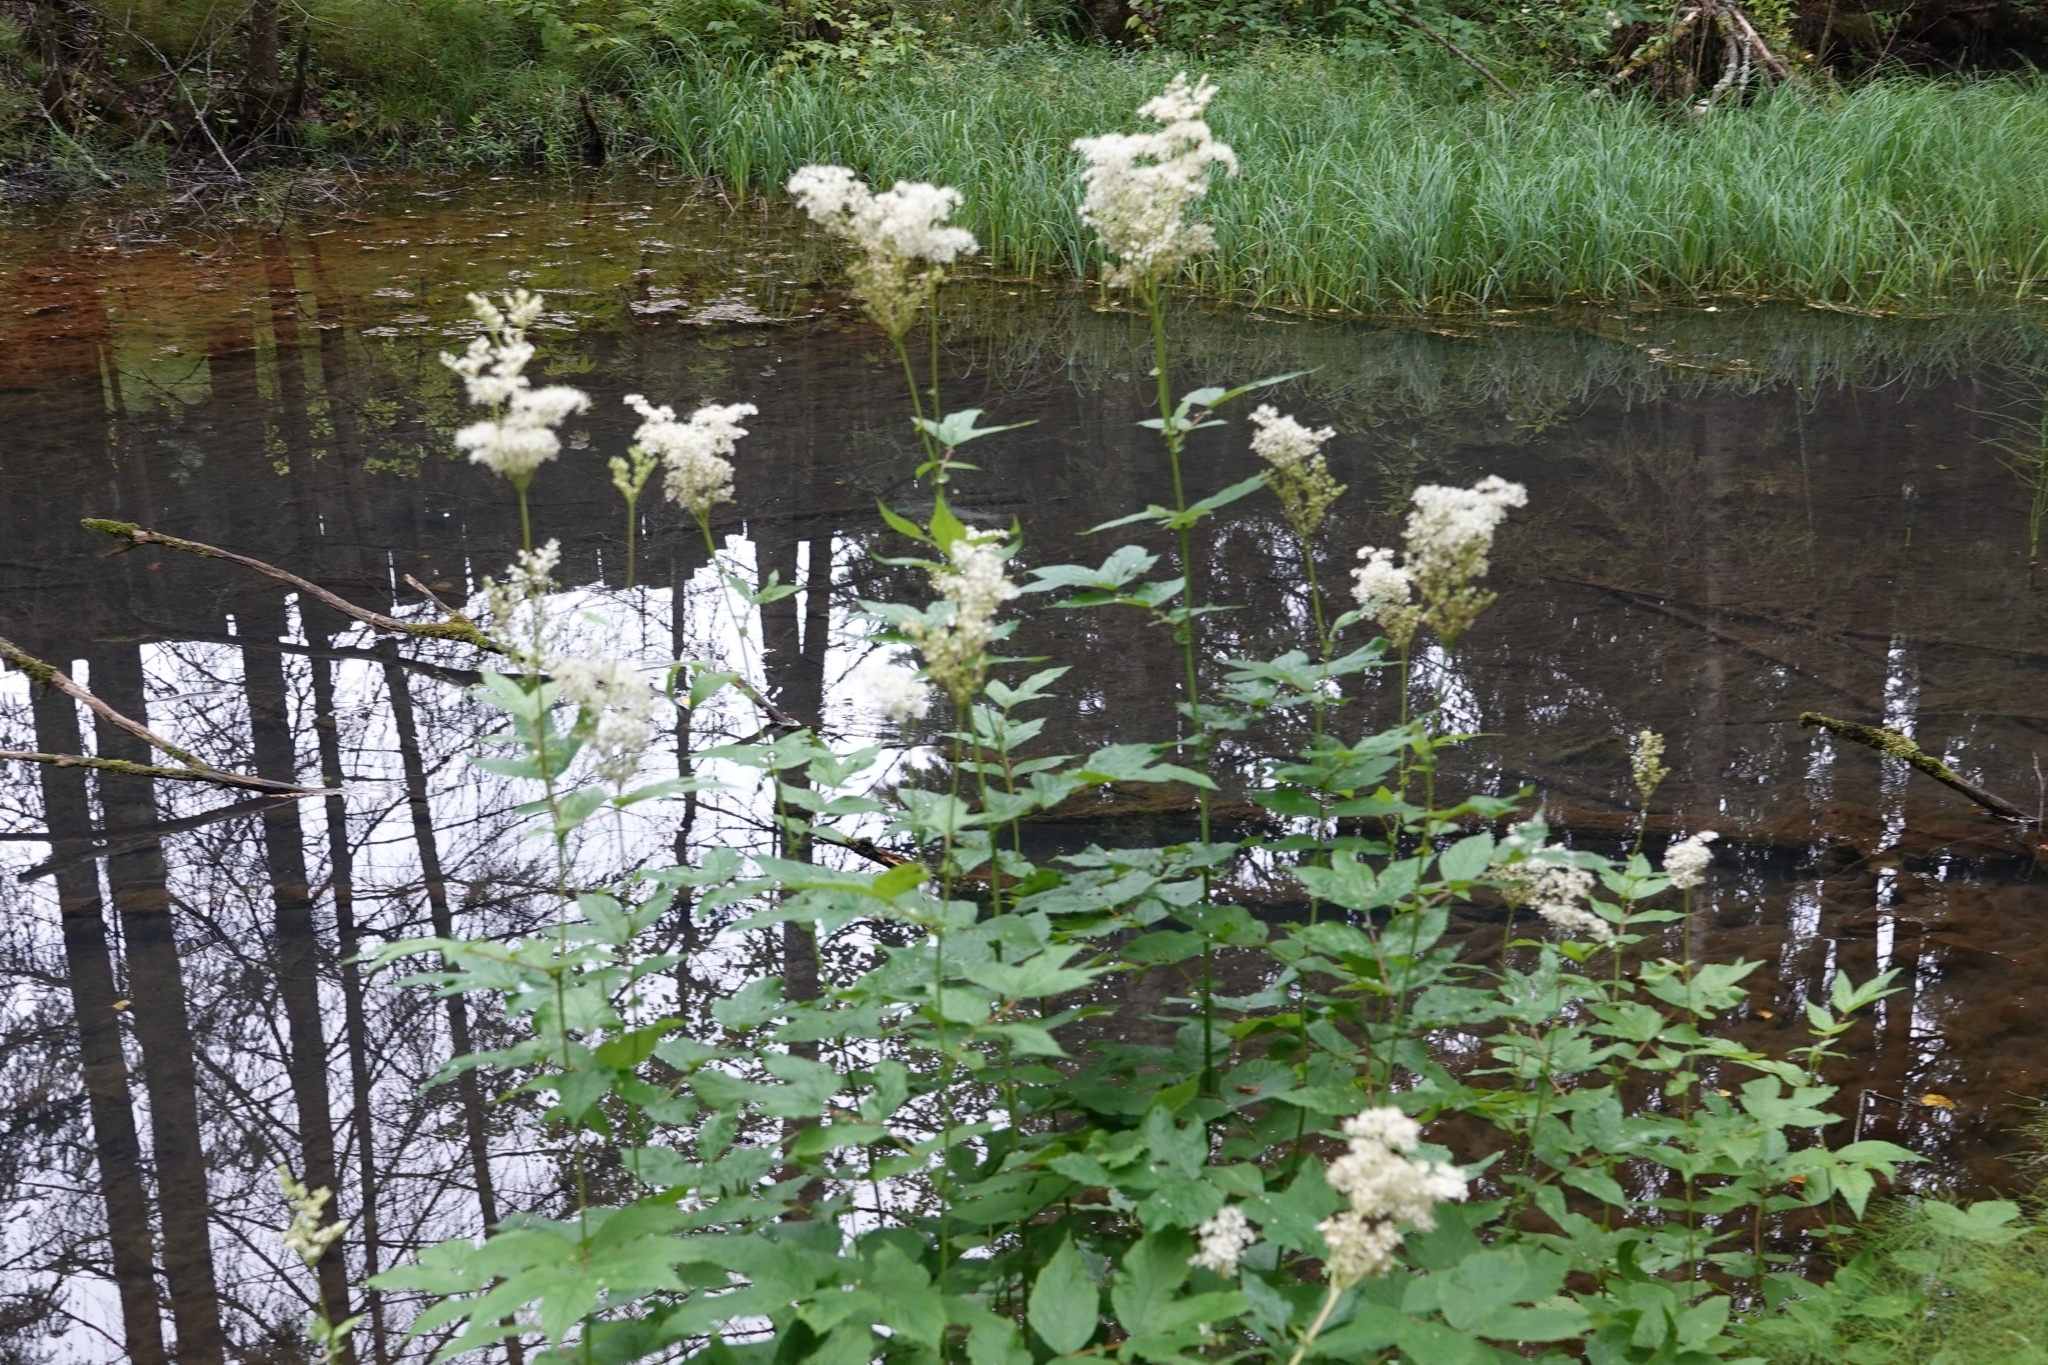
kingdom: Plantae
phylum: Tracheophyta
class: Magnoliopsida
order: Rosales
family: Rosaceae
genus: Filipendula
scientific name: Filipendula ulmaria
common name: Meadowsweet
